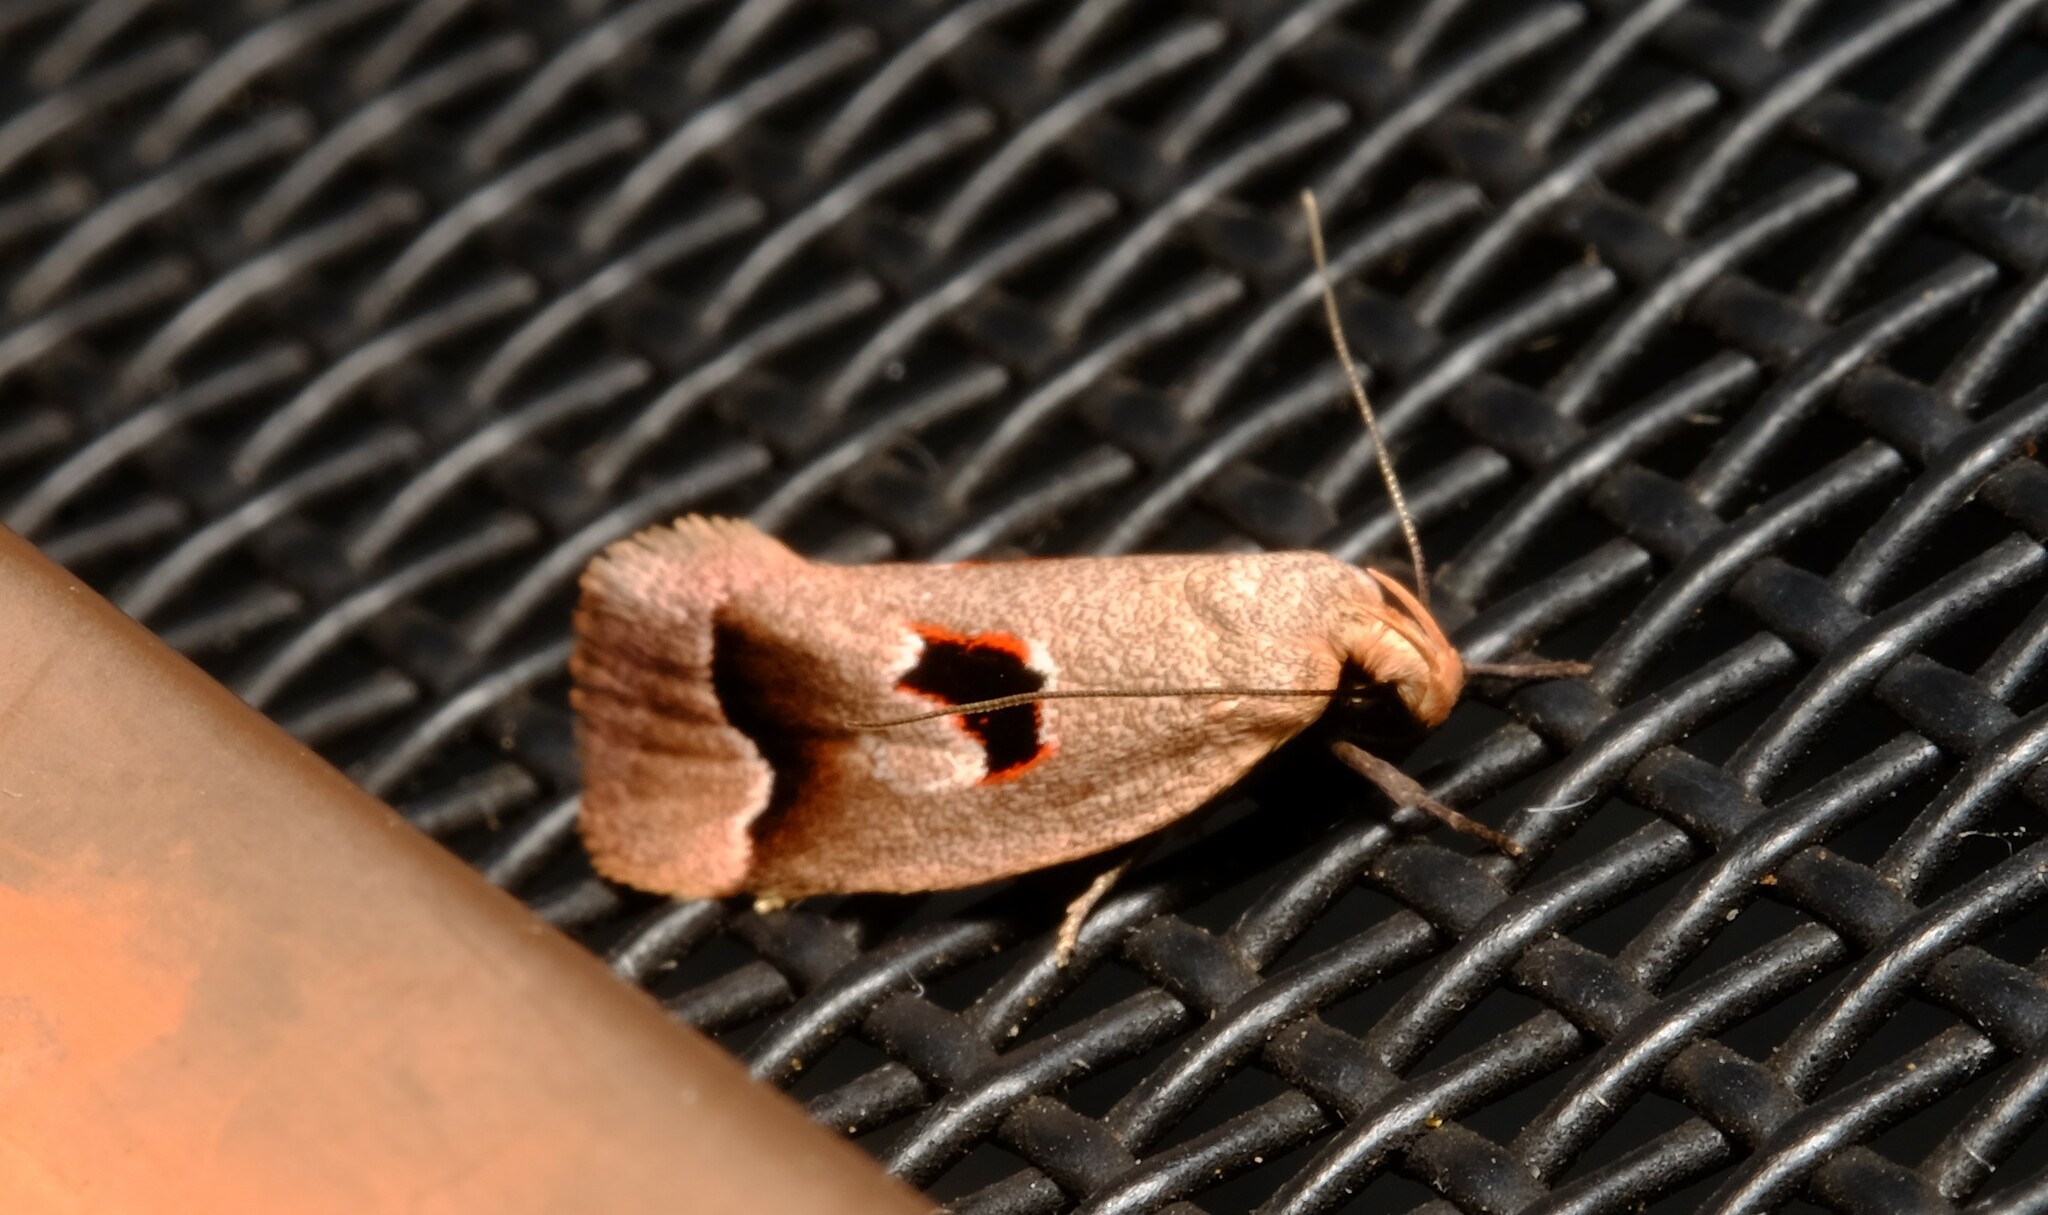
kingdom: Animalia
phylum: Arthropoda
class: Insecta
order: Lepidoptera
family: Oecophoridae
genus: Acanthodela
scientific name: Acanthodela erythrosema
